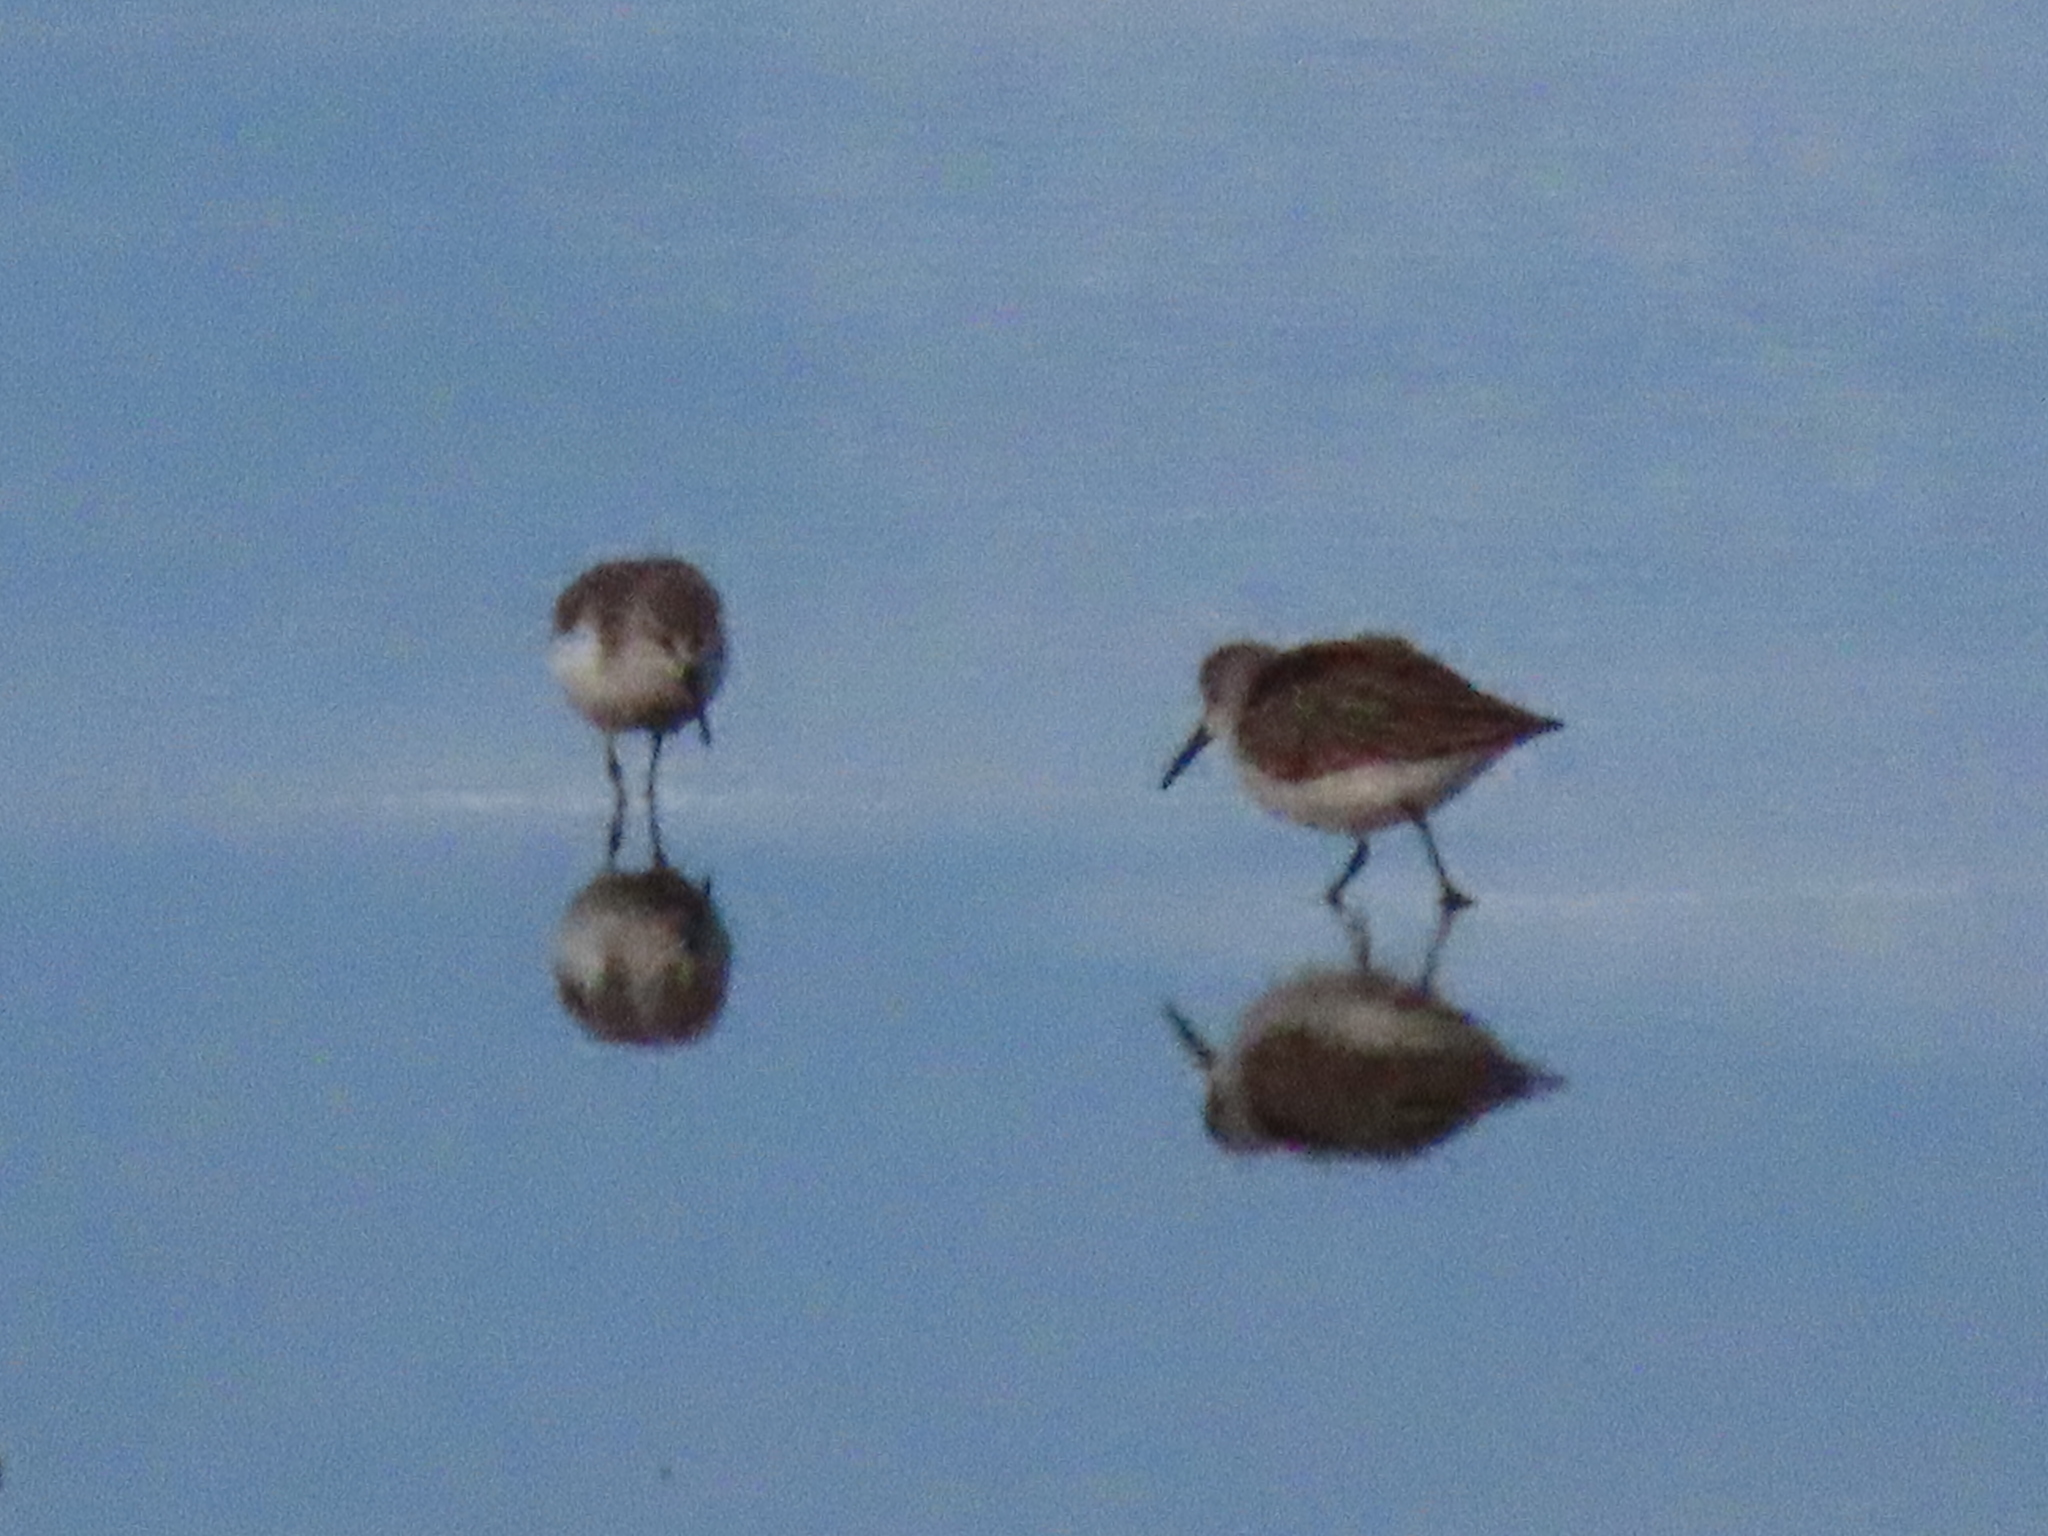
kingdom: Animalia
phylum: Chordata
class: Aves
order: Charadriiformes
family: Scolopacidae
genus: Calidris
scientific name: Calidris mauri
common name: Western sandpiper
